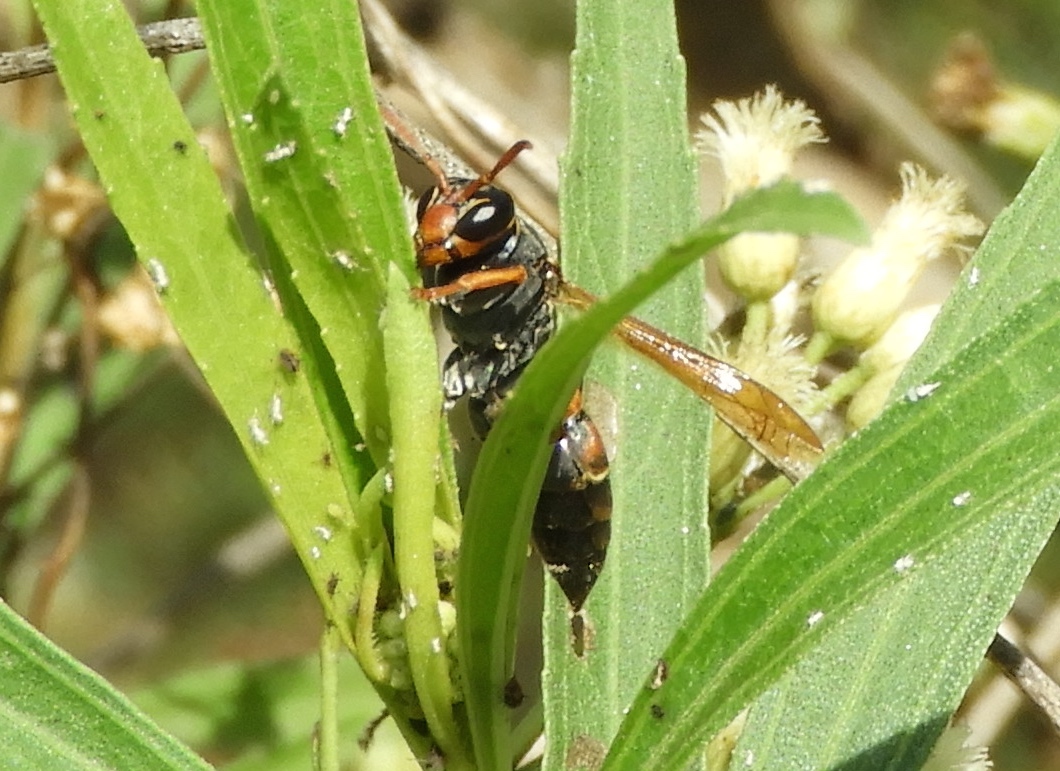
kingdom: Animalia
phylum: Arthropoda
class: Insecta
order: Hymenoptera
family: Eumenidae
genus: Polistes
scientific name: Polistes pacificus
